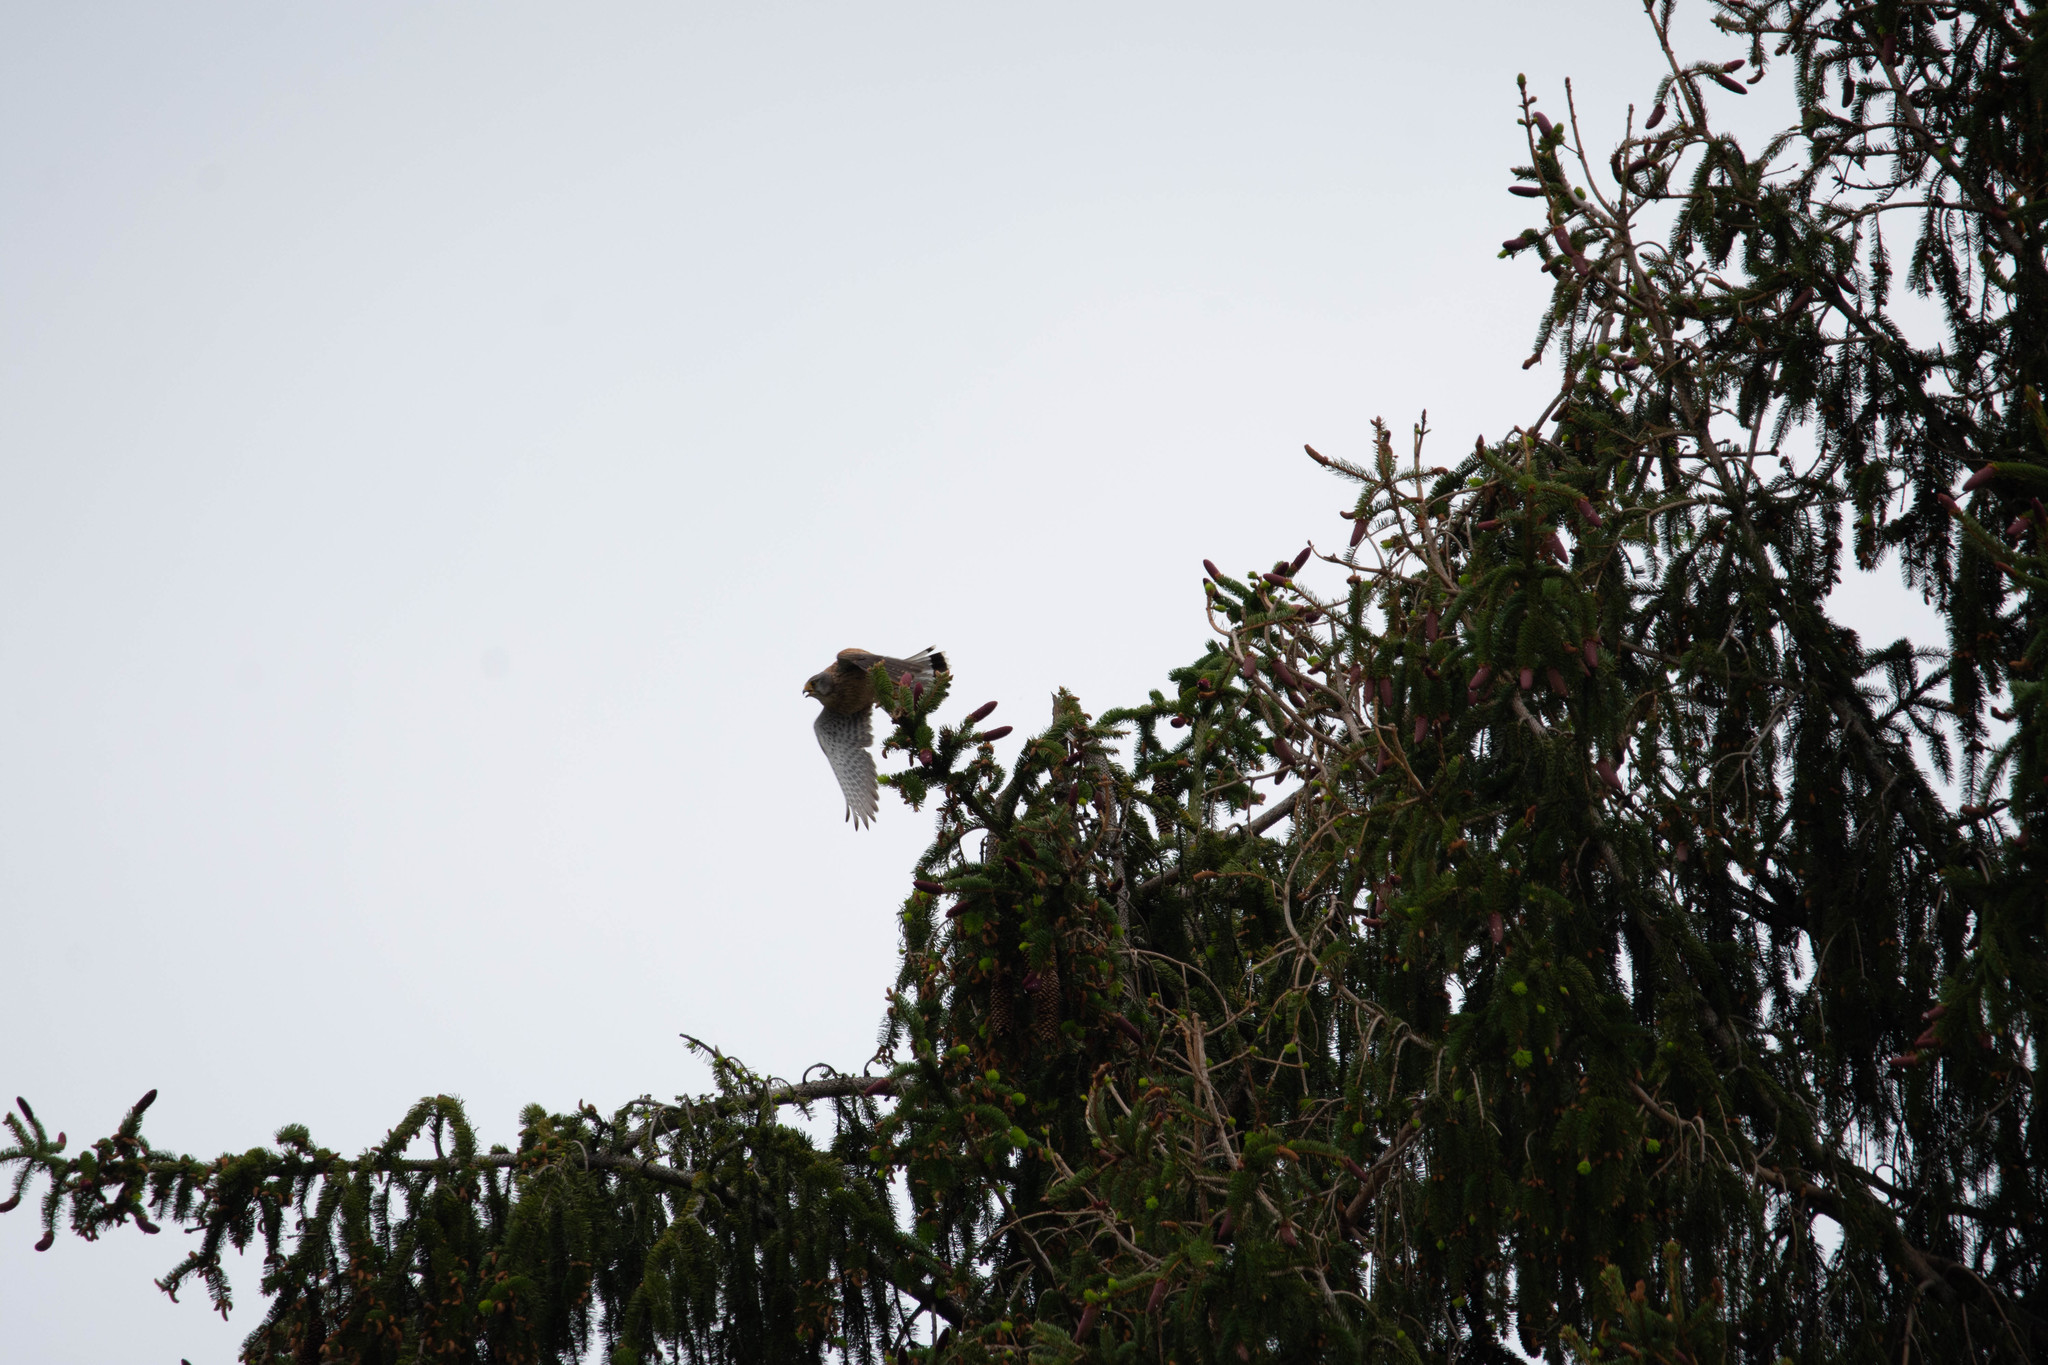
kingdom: Animalia
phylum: Chordata
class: Aves
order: Falconiformes
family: Falconidae
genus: Falco
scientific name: Falco tinnunculus
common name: Common kestrel
